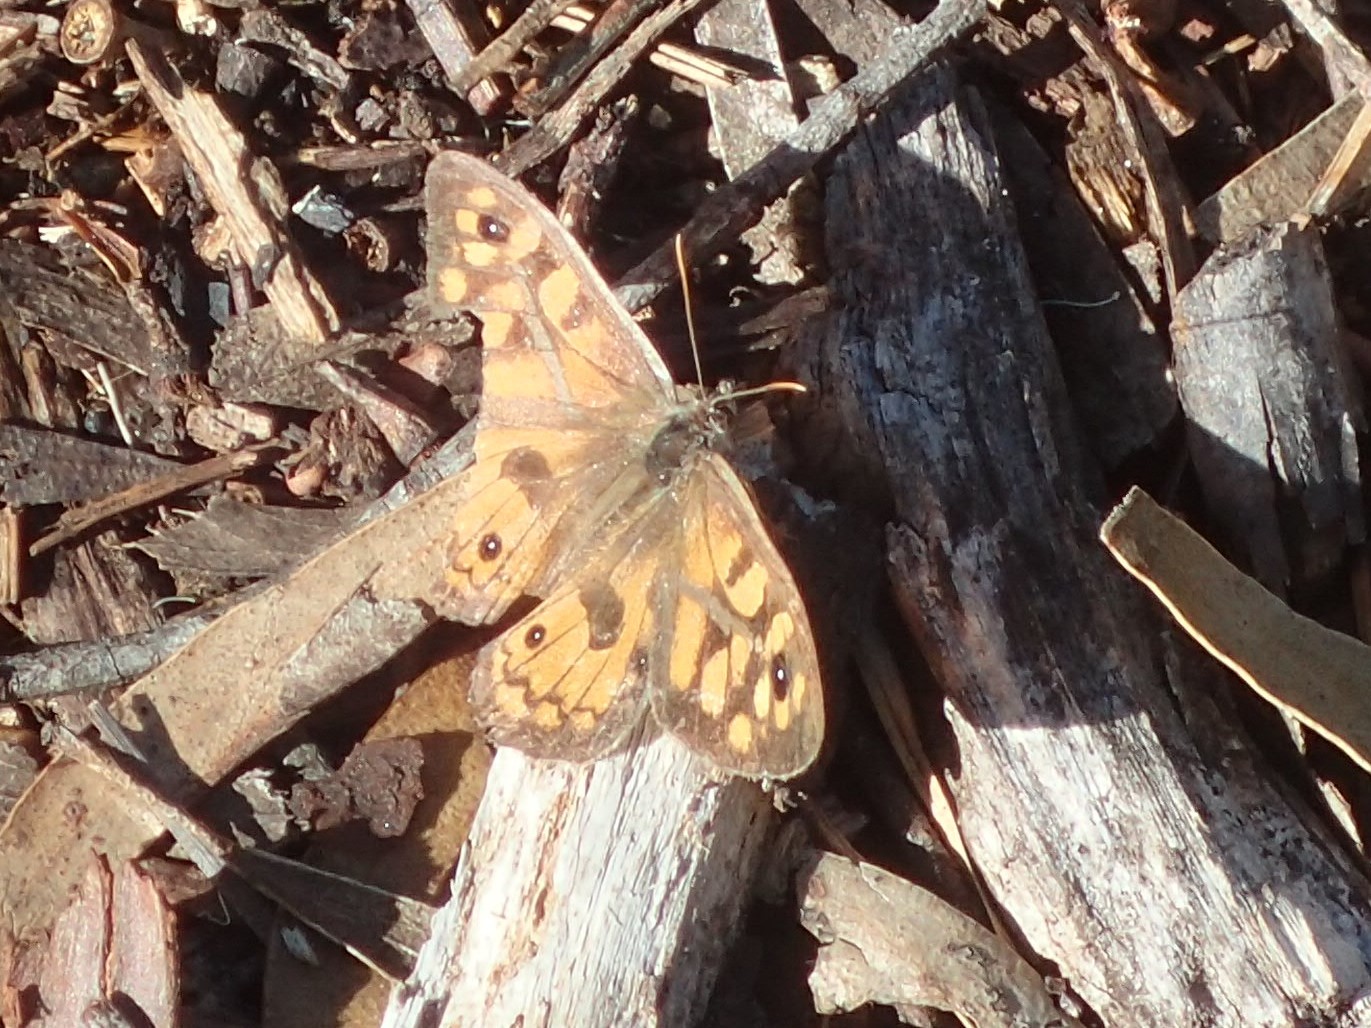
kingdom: Animalia
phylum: Arthropoda
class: Insecta
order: Lepidoptera
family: Nymphalidae
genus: Geitoneura
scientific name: Geitoneura klugii
